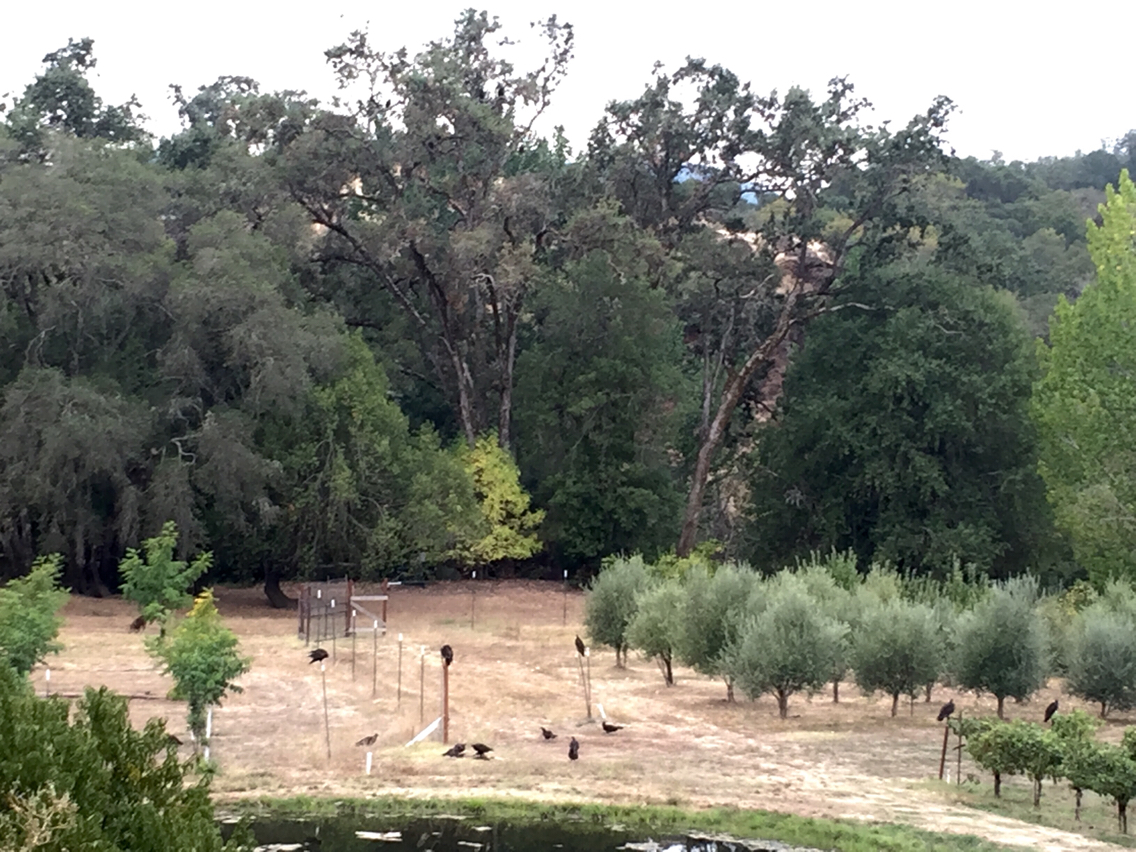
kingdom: Animalia
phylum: Chordata
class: Aves
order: Accipitriformes
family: Cathartidae
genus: Cathartes
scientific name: Cathartes aura
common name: Turkey vulture
